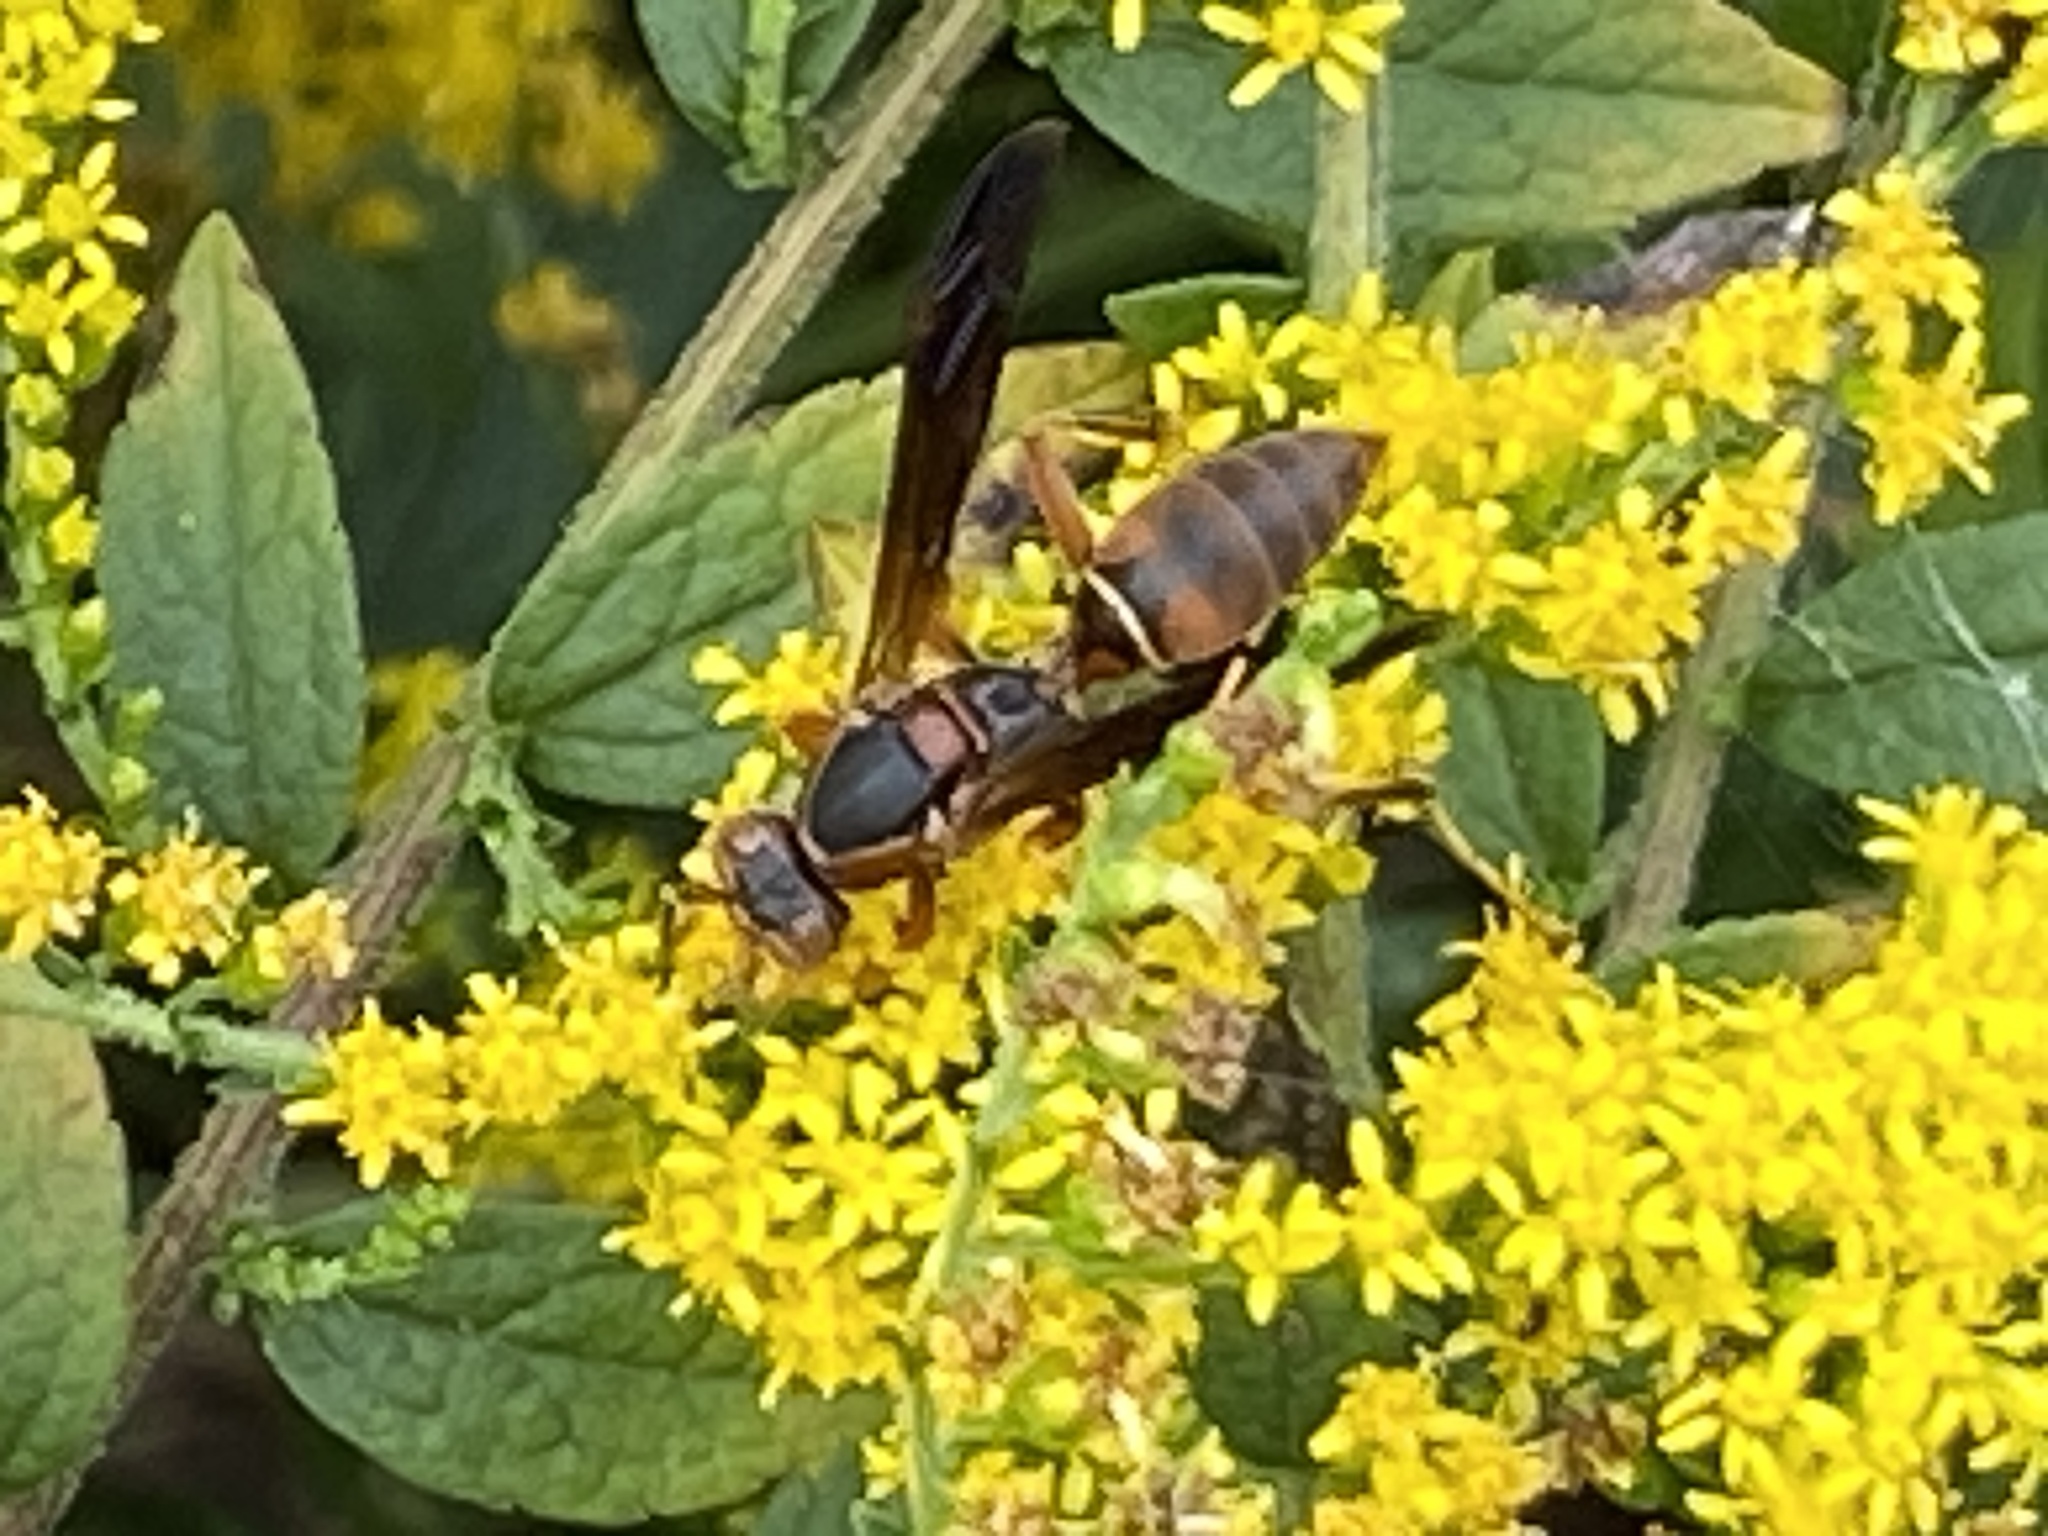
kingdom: Animalia
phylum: Arthropoda
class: Insecta
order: Hymenoptera
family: Eumenidae
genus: Polistes
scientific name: Polistes fuscatus
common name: Dark paper wasp
